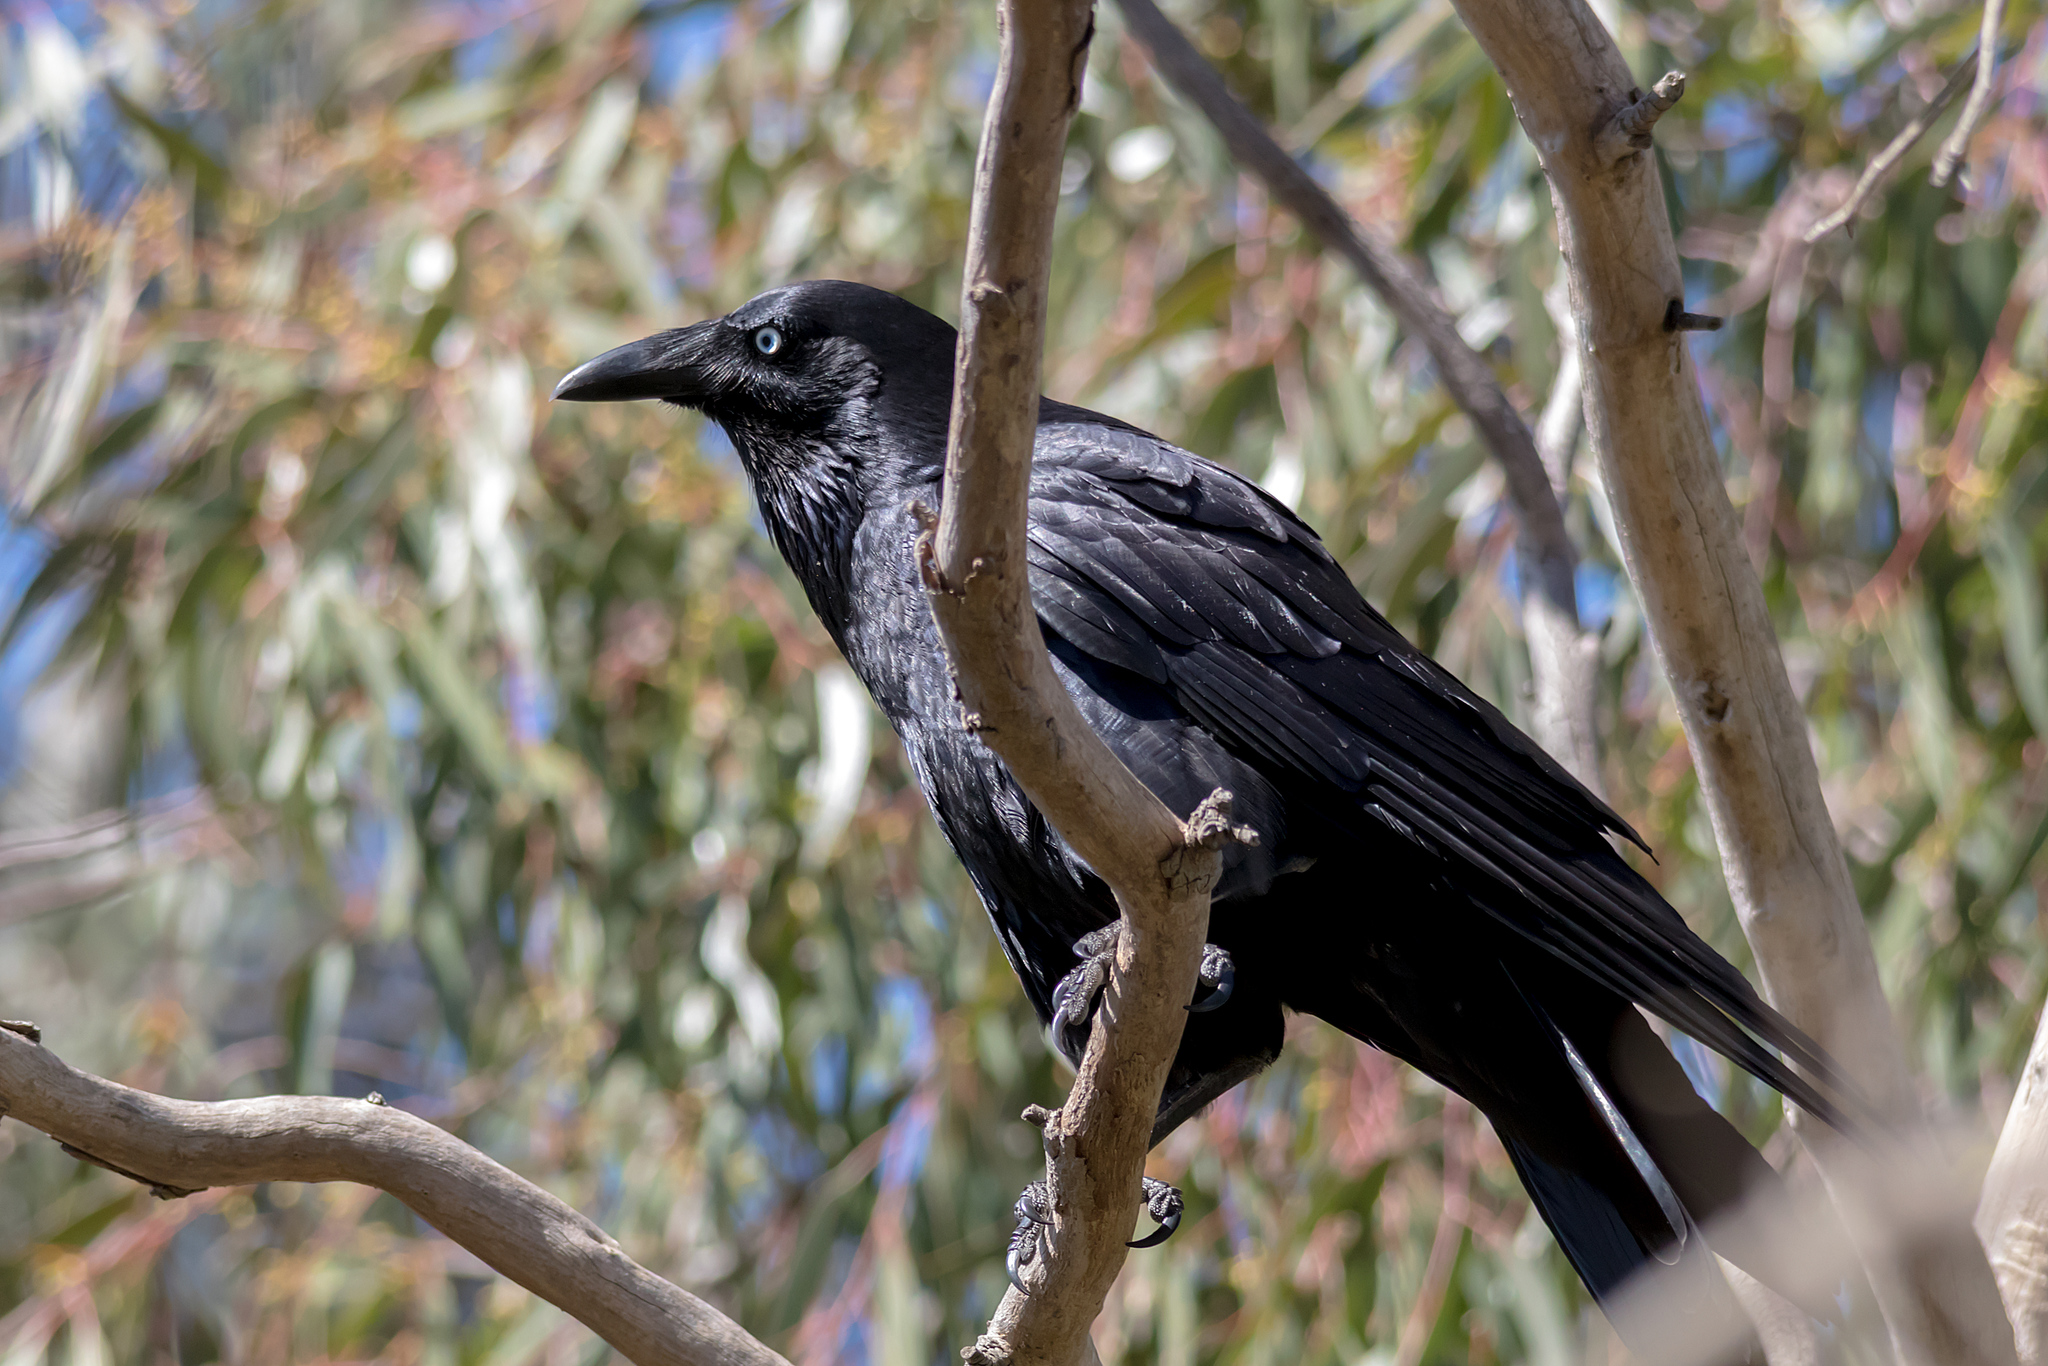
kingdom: Animalia
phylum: Chordata
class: Aves
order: Passeriformes
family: Corvidae
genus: Corvus
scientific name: Corvus mellori
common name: Little raven
